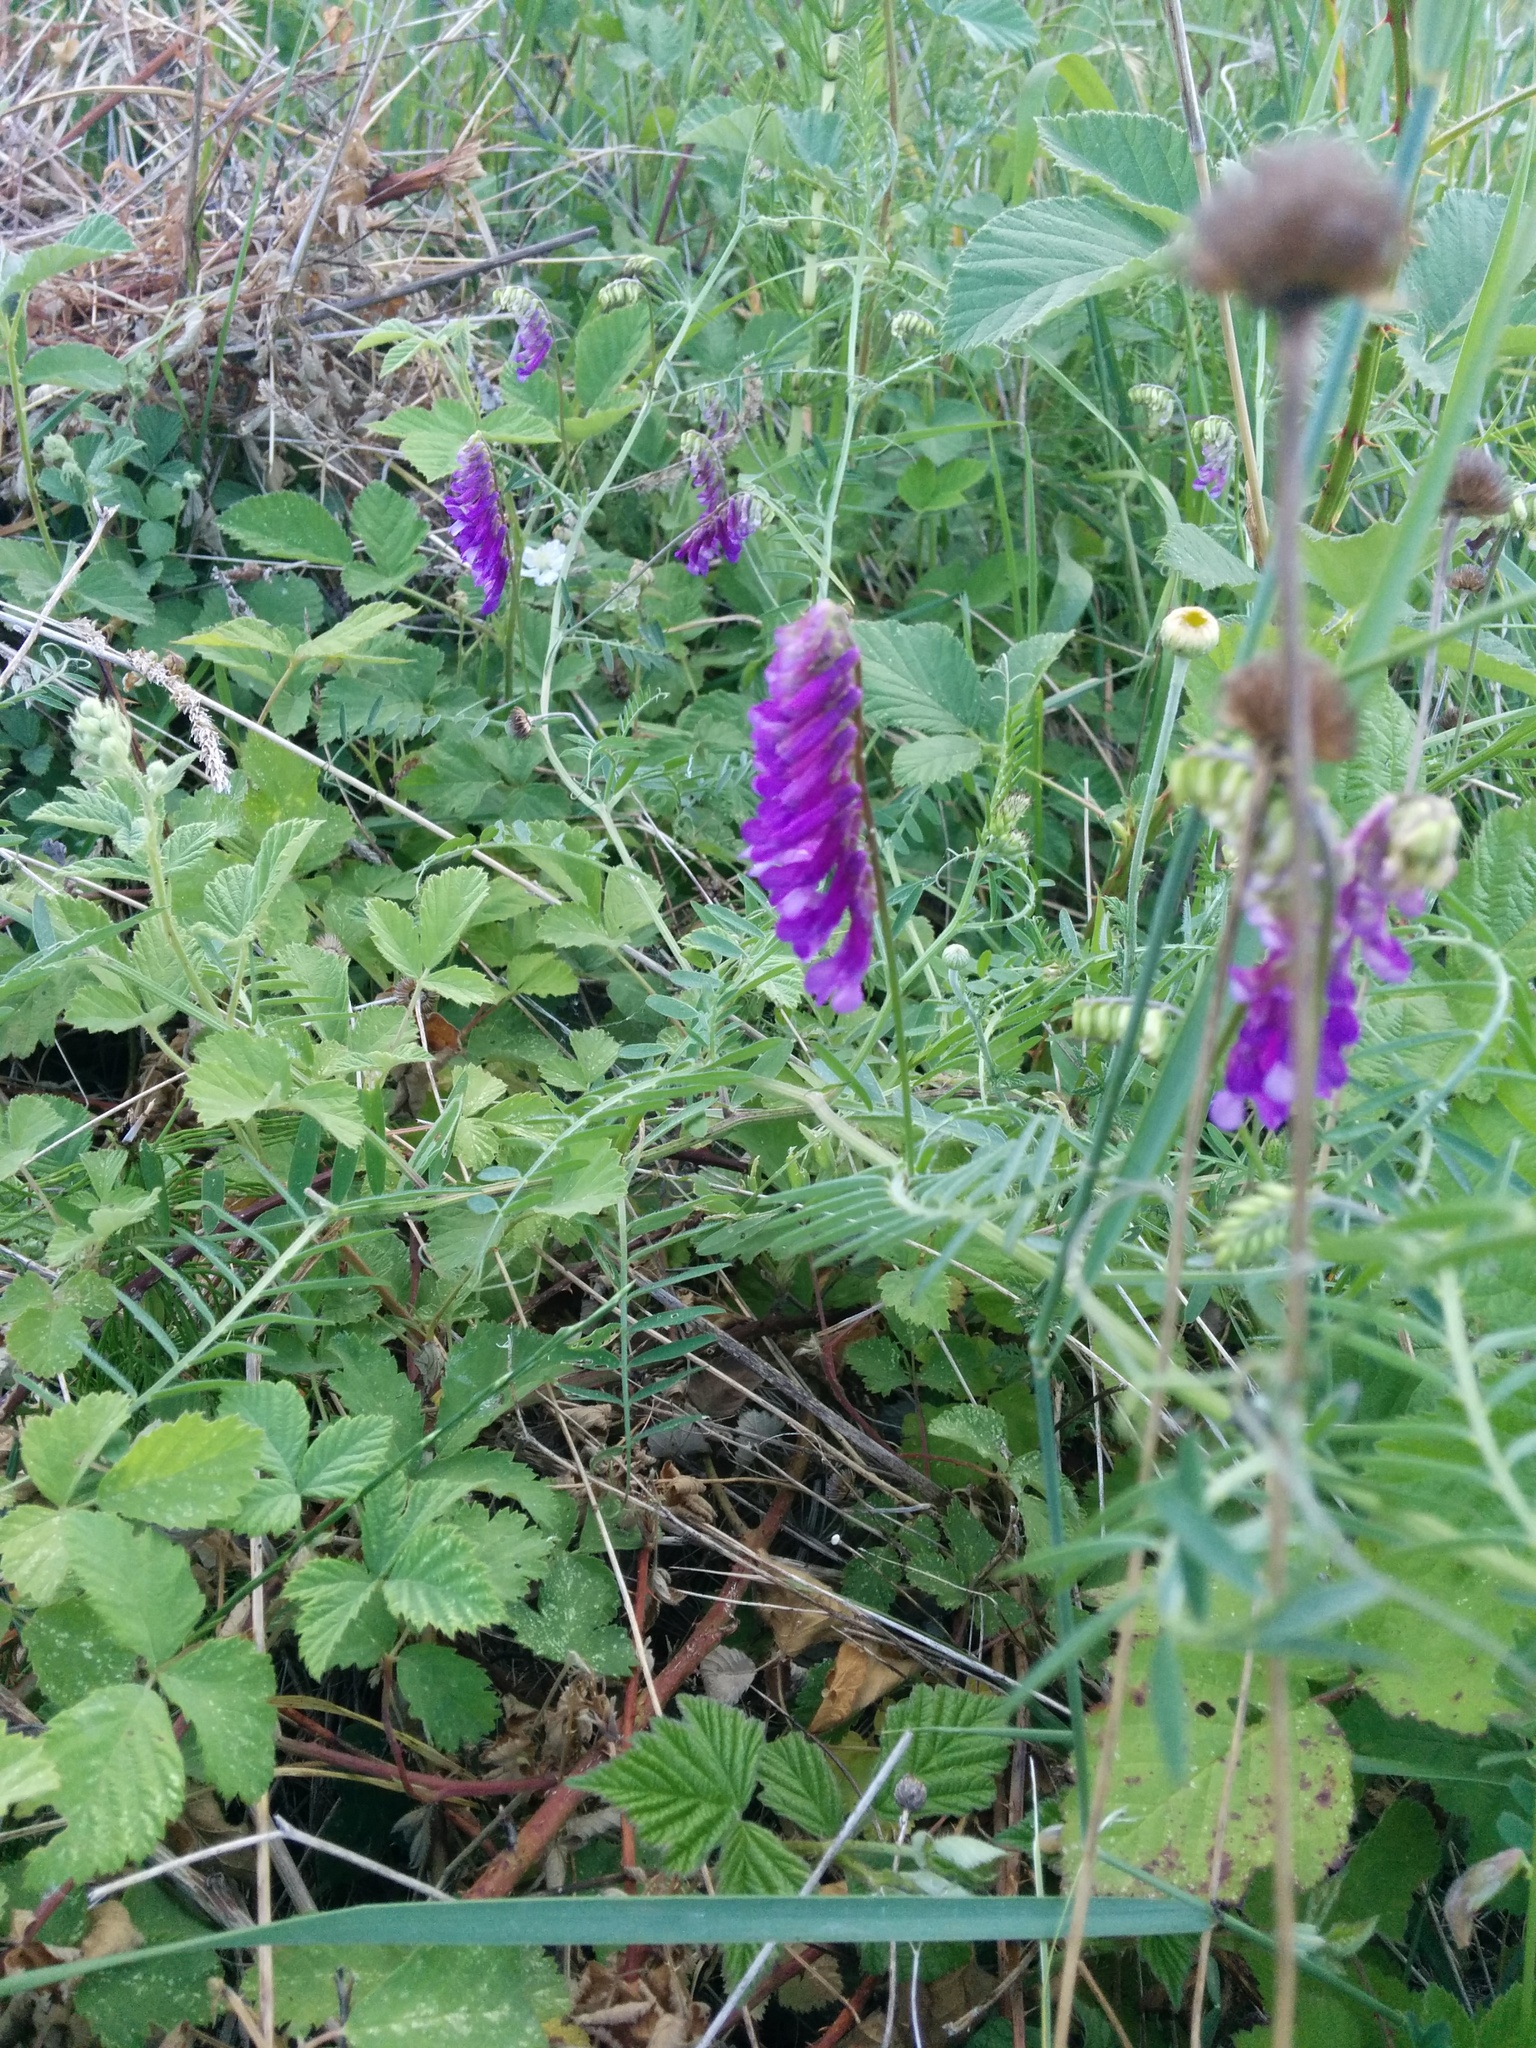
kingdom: Plantae
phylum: Tracheophyta
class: Magnoliopsida
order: Fabales
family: Fabaceae
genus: Vicia
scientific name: Vicia cracca
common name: Bird vetch
